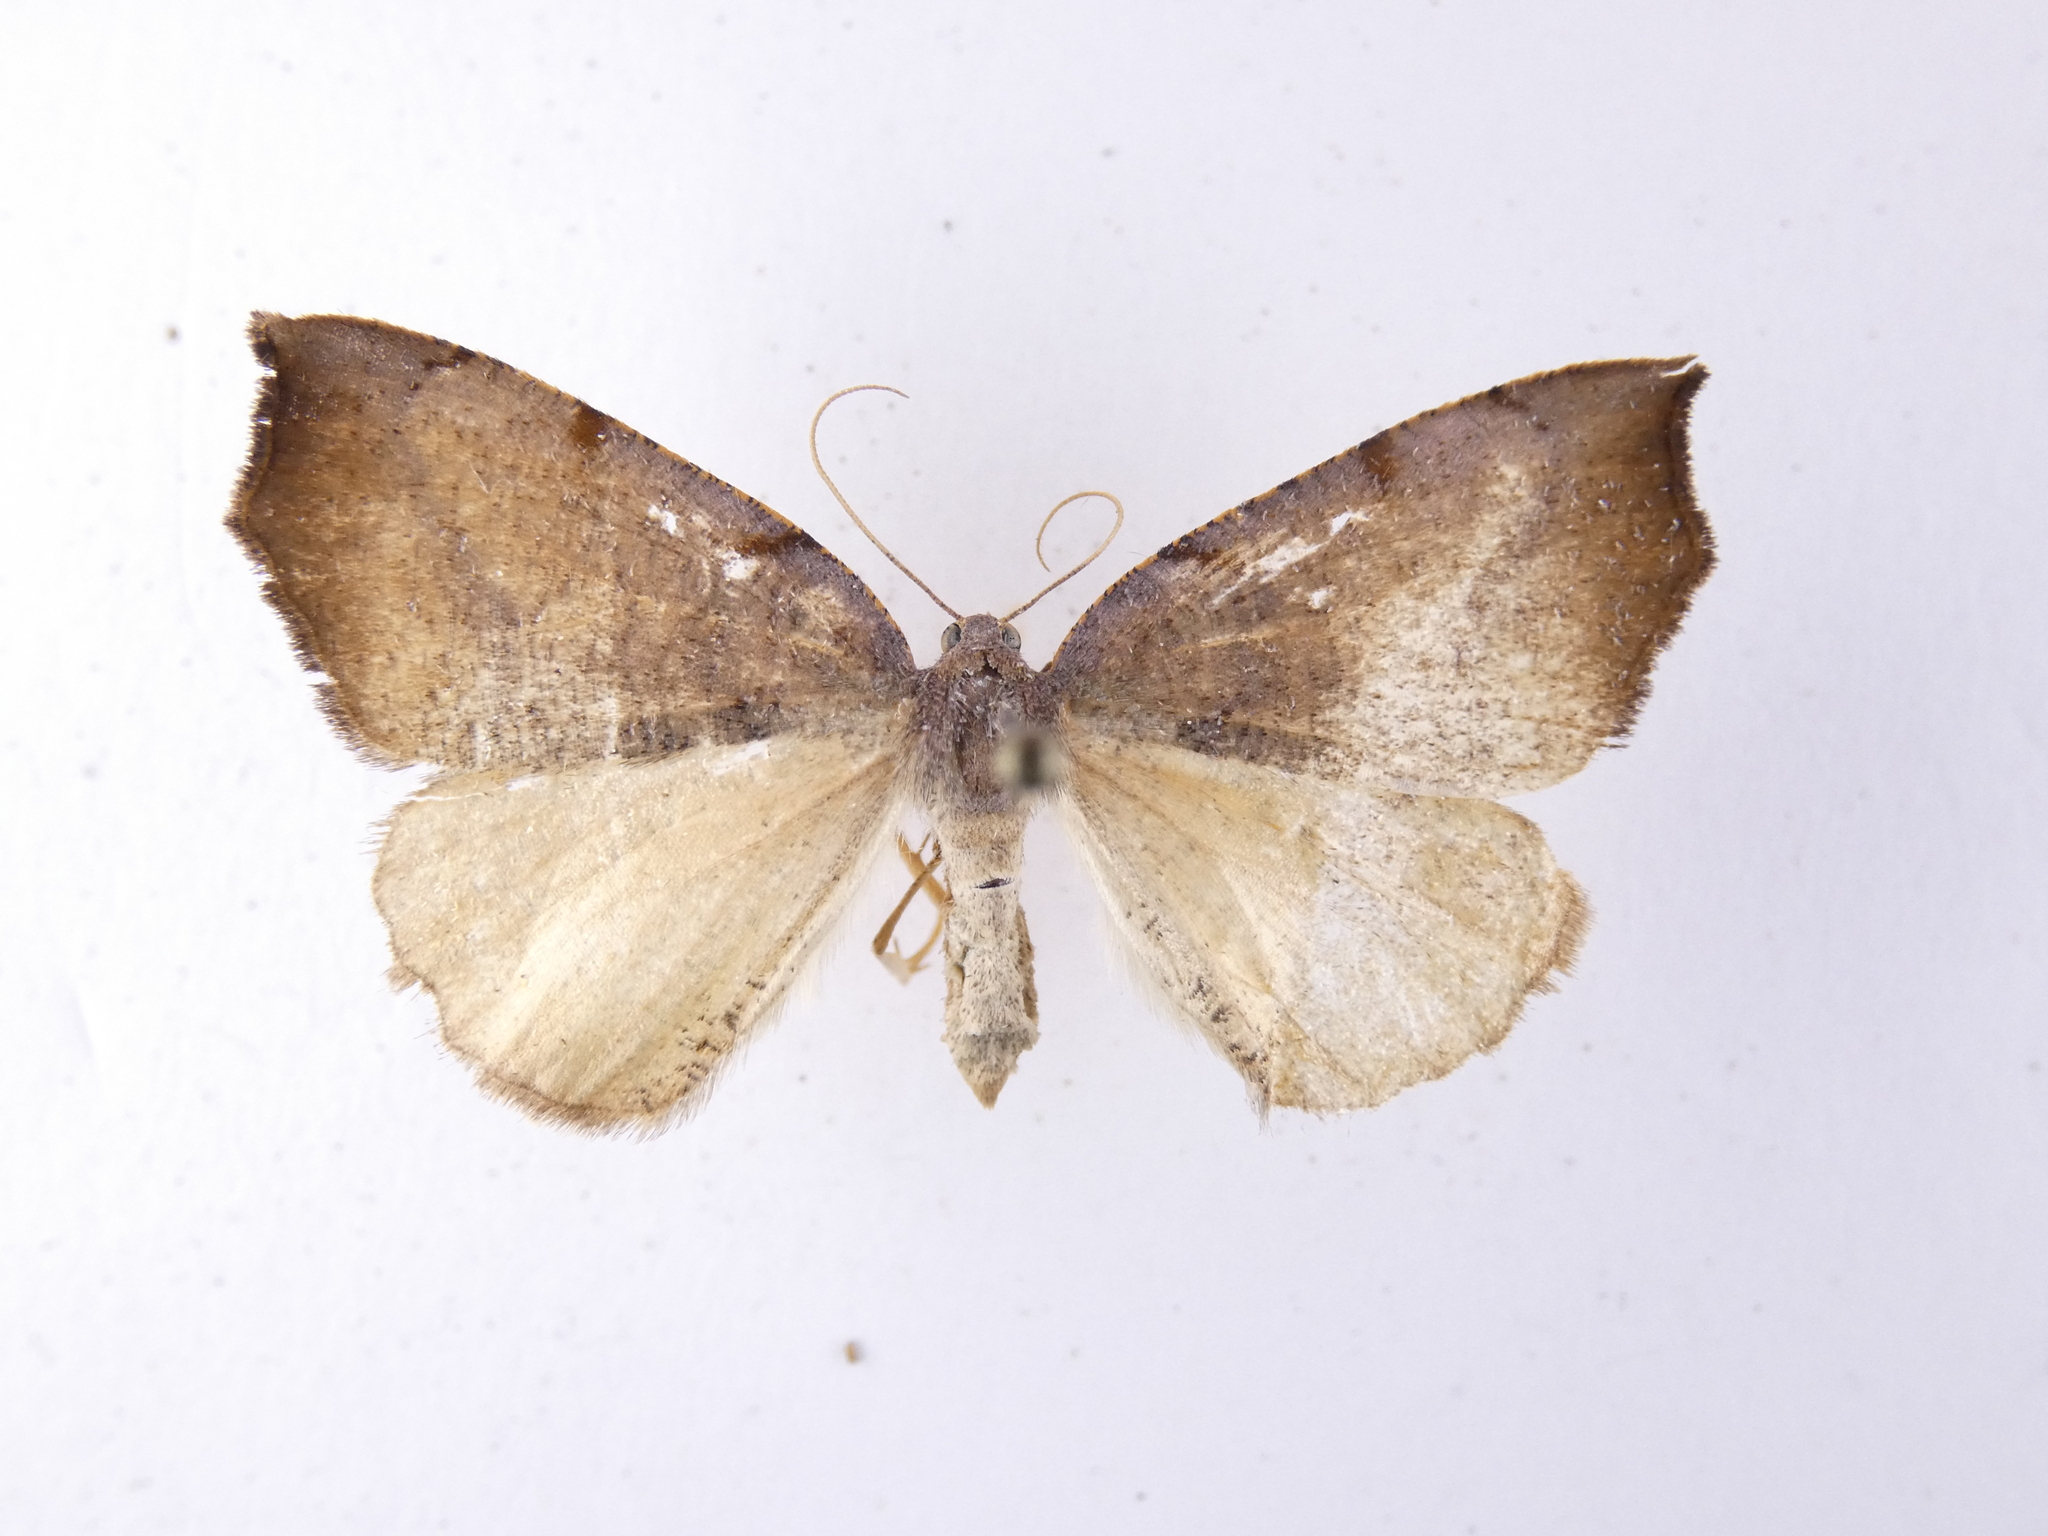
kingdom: Animalia
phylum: Arthropoda
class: Insecta
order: Lepidoptera
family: Geometridae
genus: Sestra
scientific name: Sestra flexata
